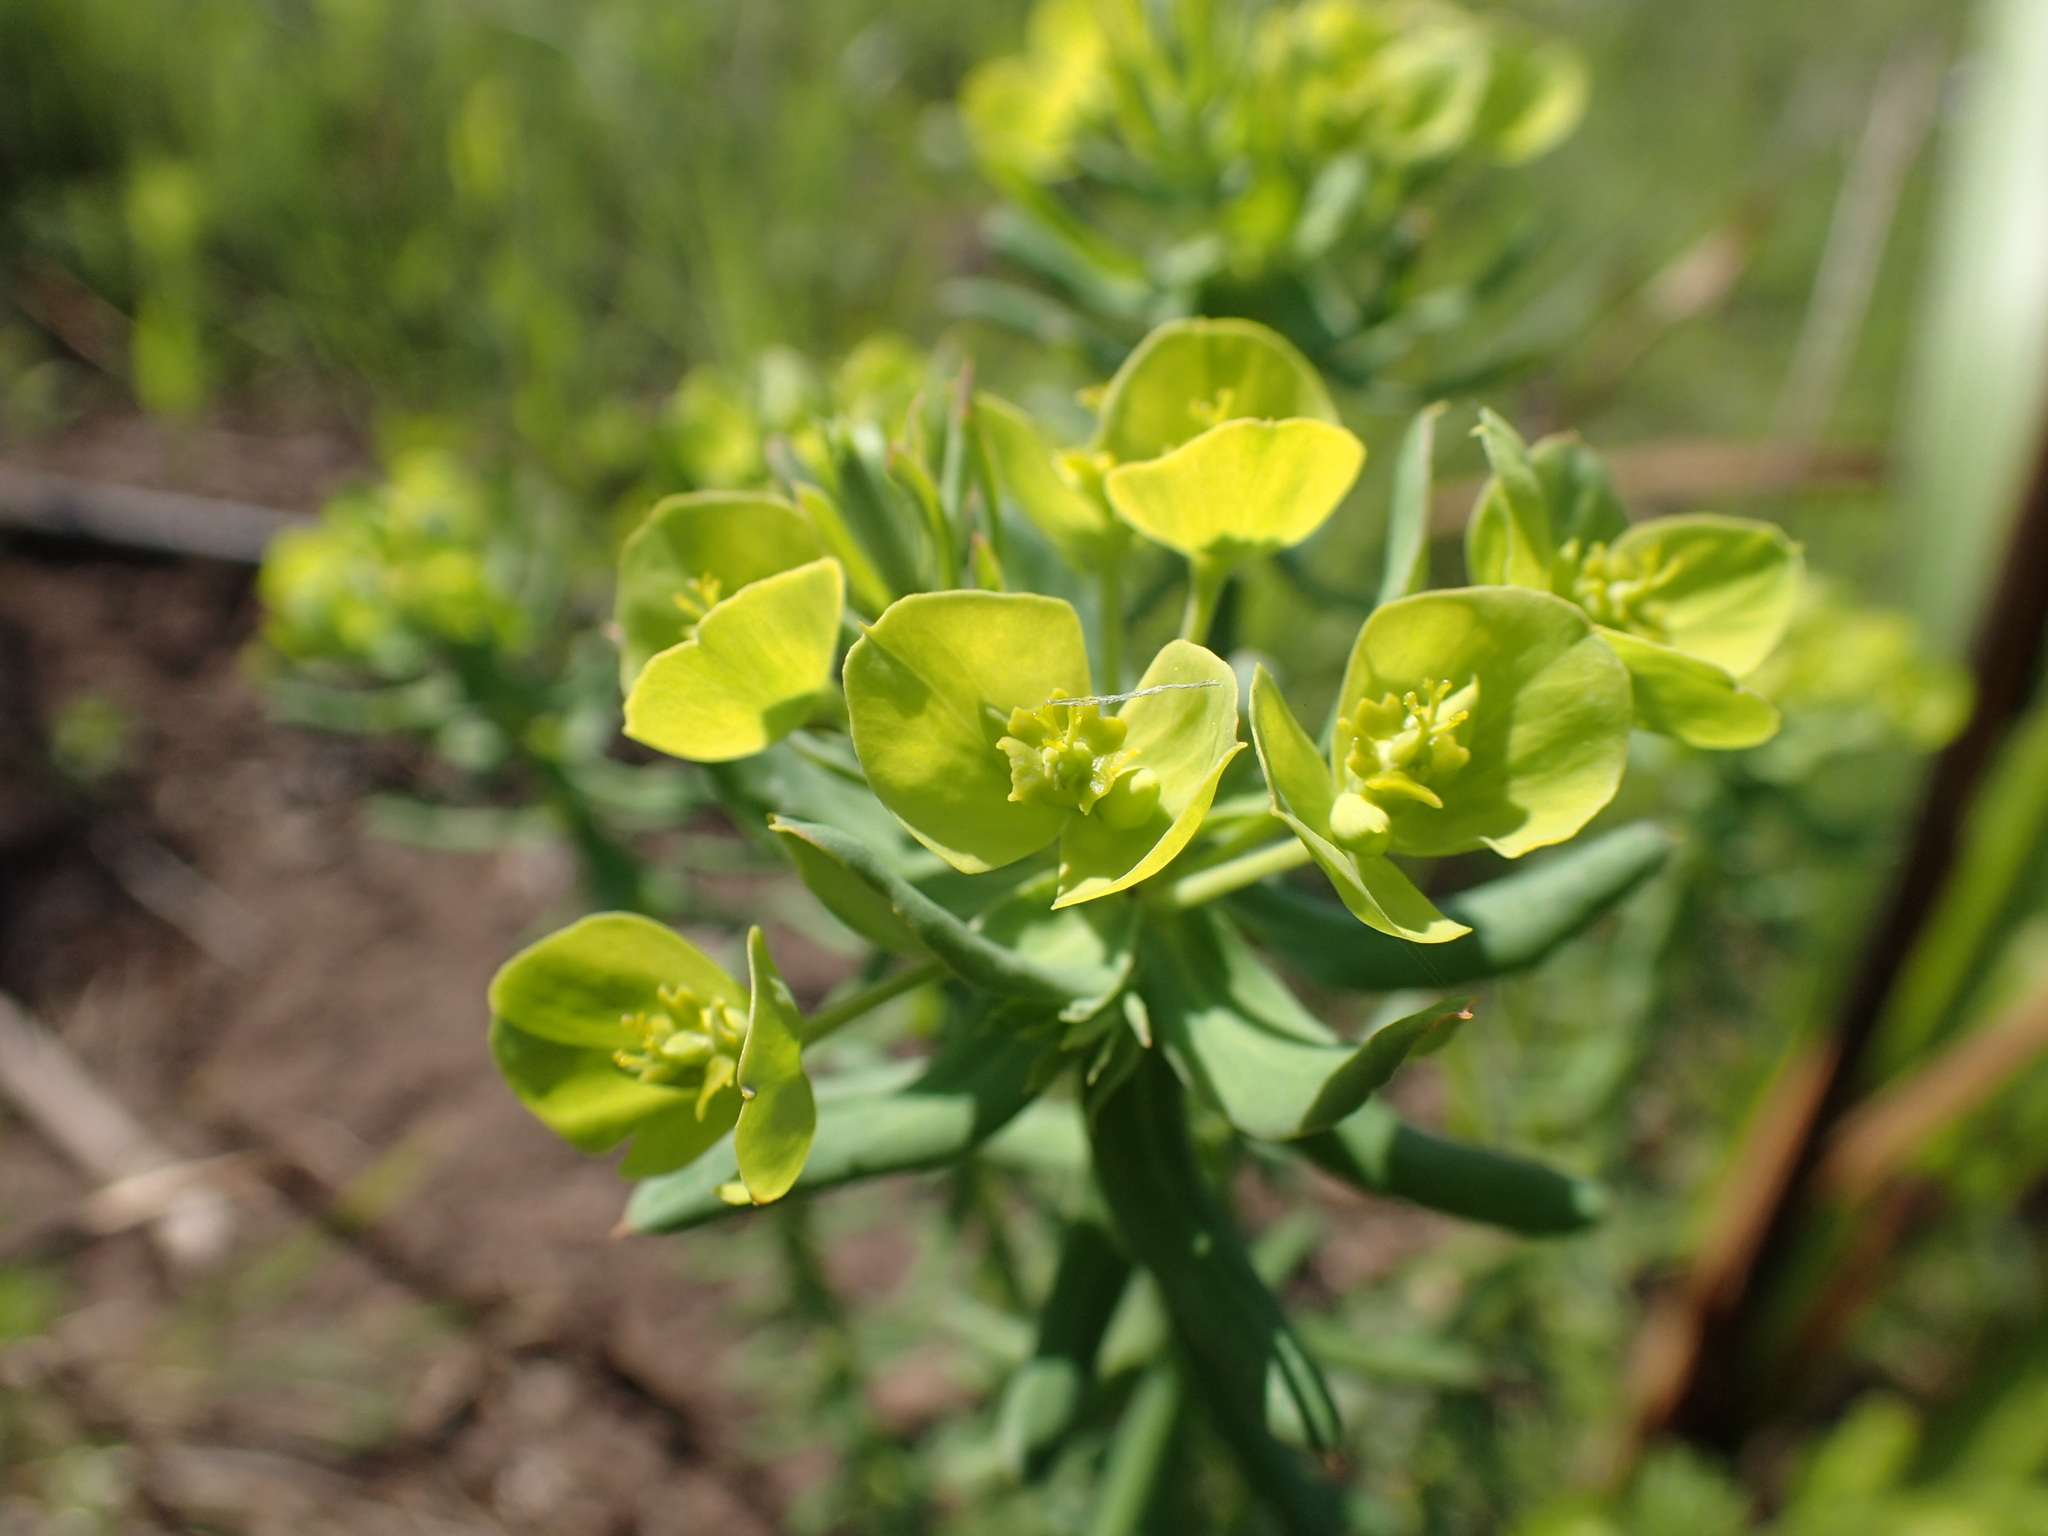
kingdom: Plantae
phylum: Tracheophyta
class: Magnoliopsida
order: Malpighiales
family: Euphorbiaceae
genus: Euphorbia
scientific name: Euphorbia natalensis
